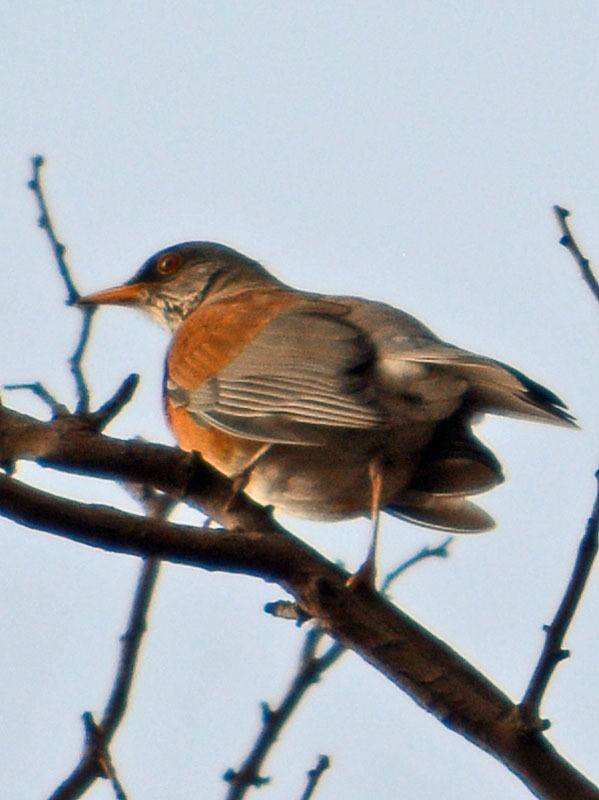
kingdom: Animalia
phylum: Chordata
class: Aves
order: Passeriformes
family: Turdidae
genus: Turdus
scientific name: Turdus rufopalliatus
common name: Rufous-backed robin
